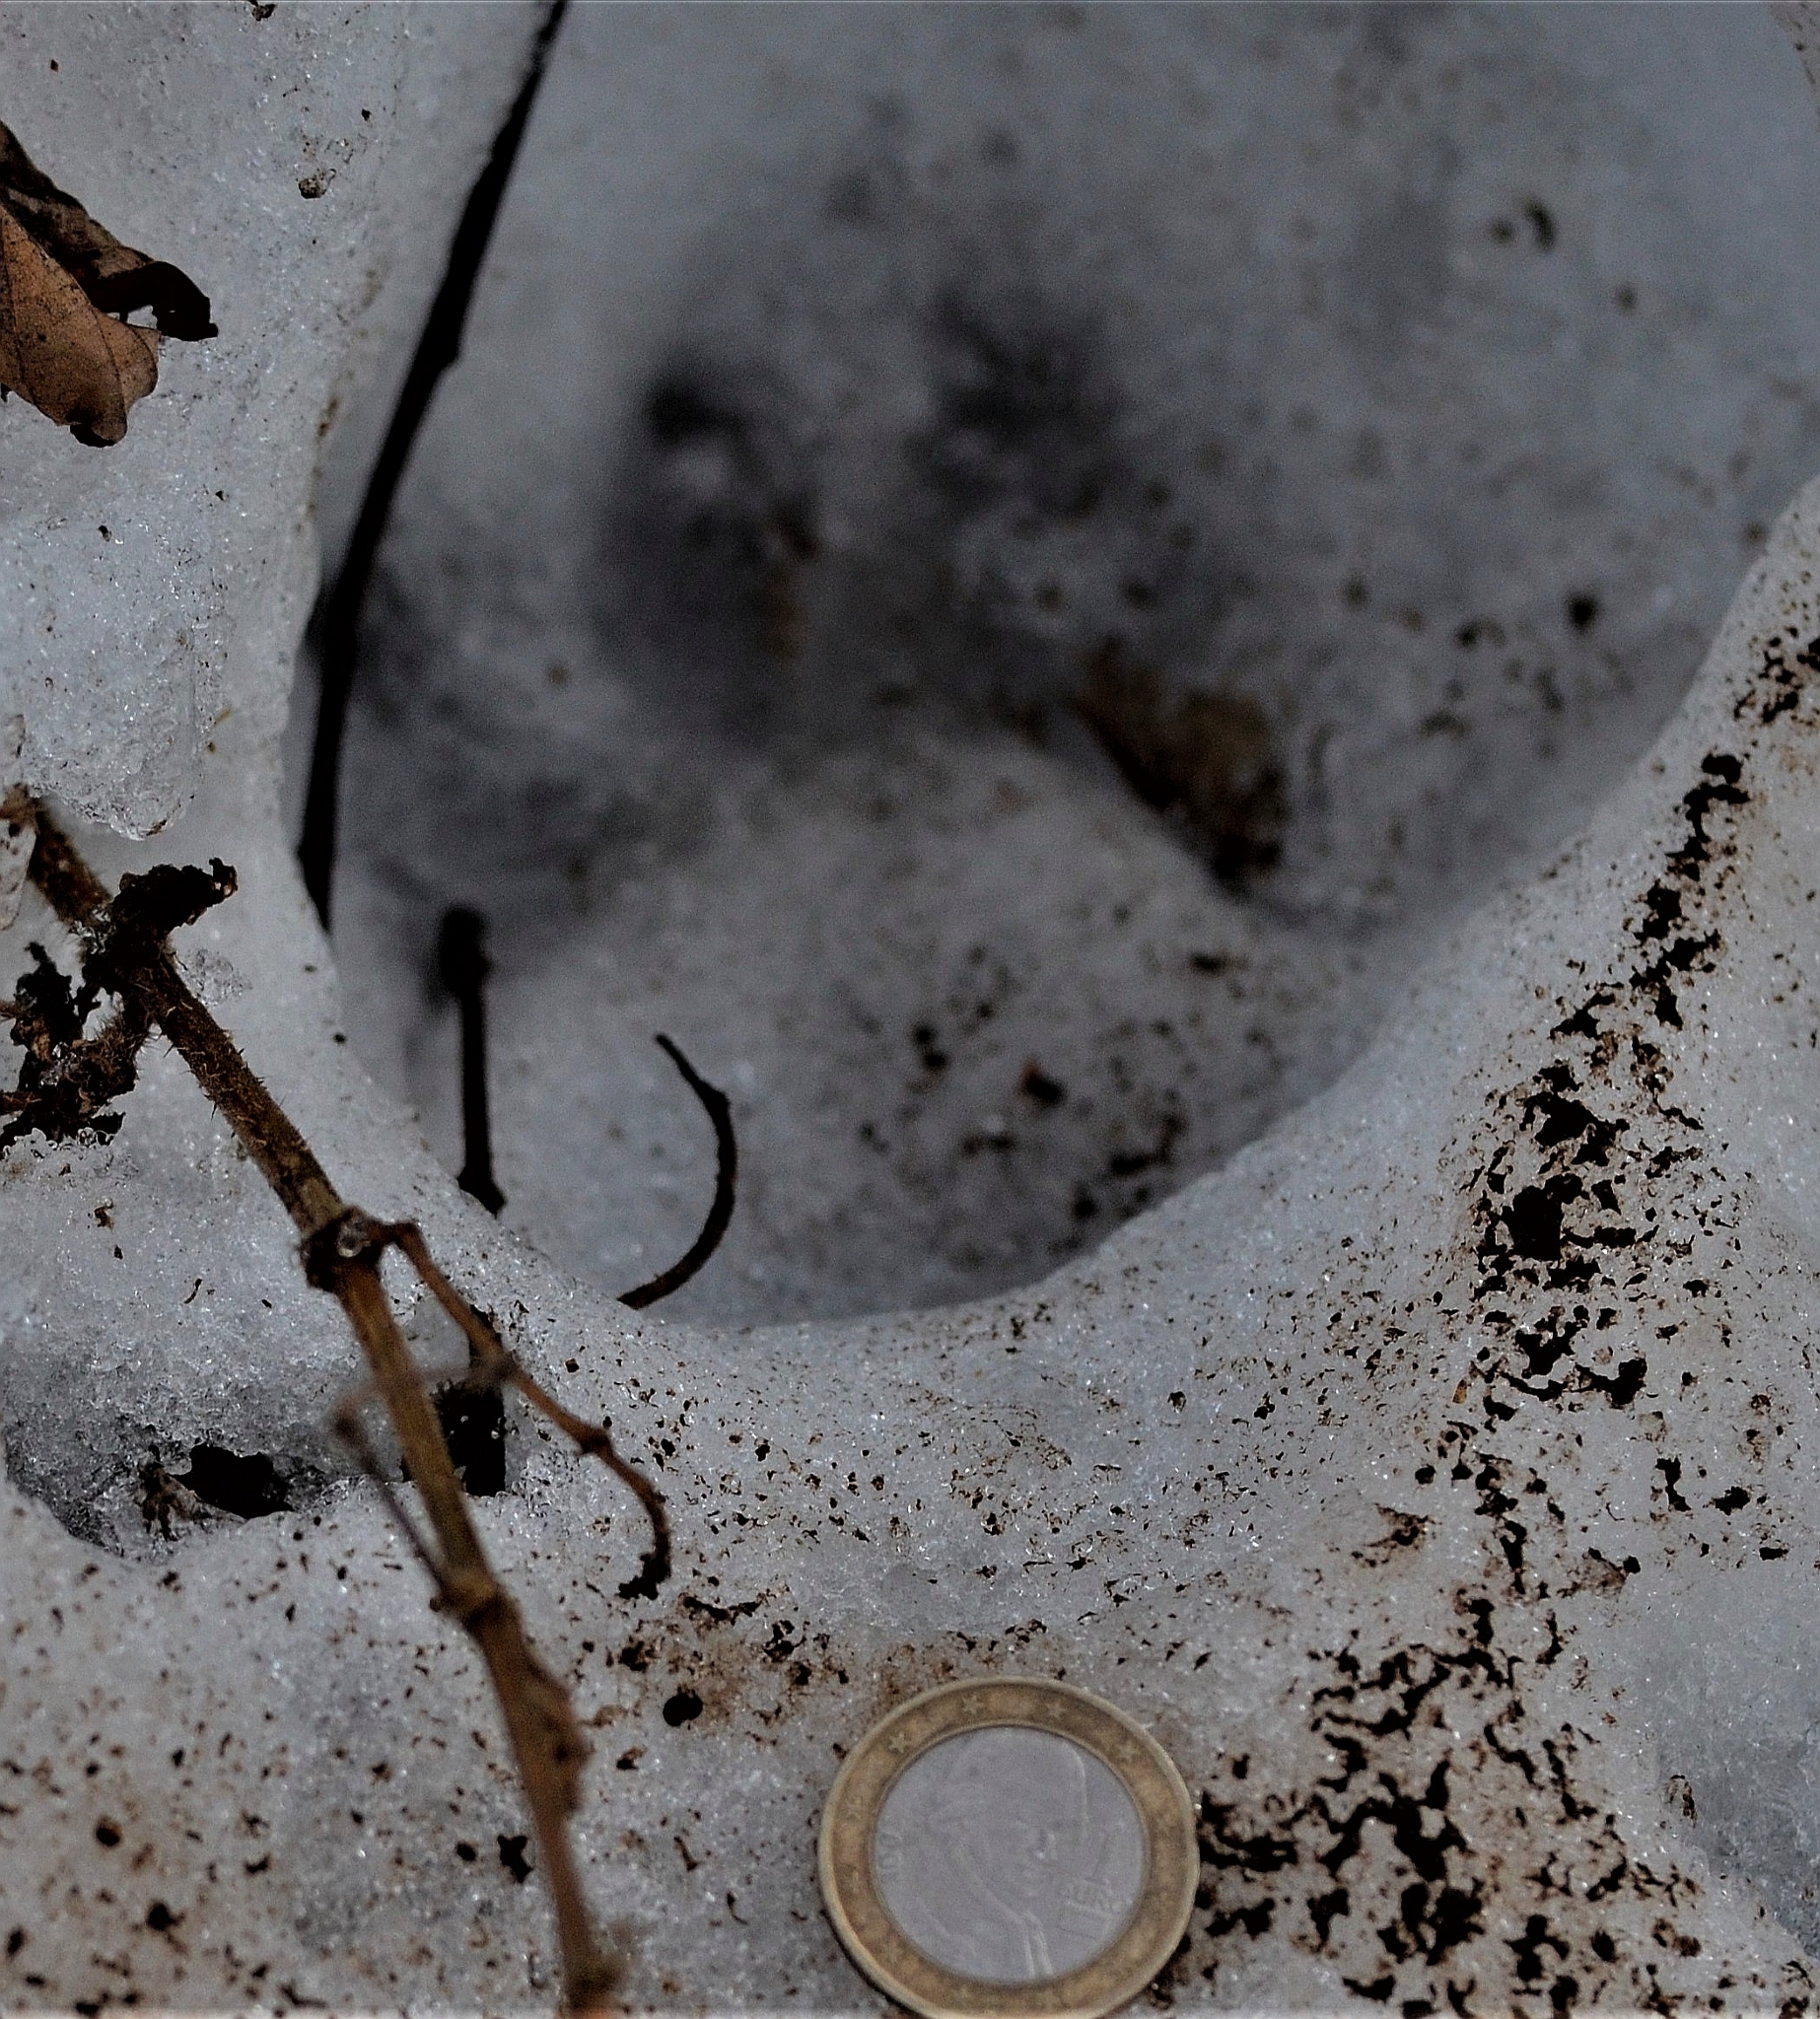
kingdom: Animalia
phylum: Chordata
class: Mammalia
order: Carnivora
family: Canidae
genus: Vulpes
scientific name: Vulpes vulpes
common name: Red fox
